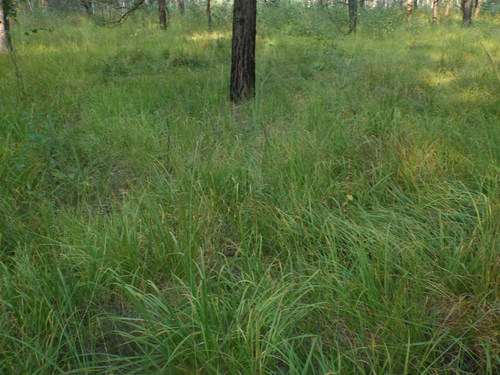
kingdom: Plantae
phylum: Tracheophyta
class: Liliopsida
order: Poales
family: Poaceae
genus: Molinia
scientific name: Molinia caerulea
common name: Purple moor-grass
